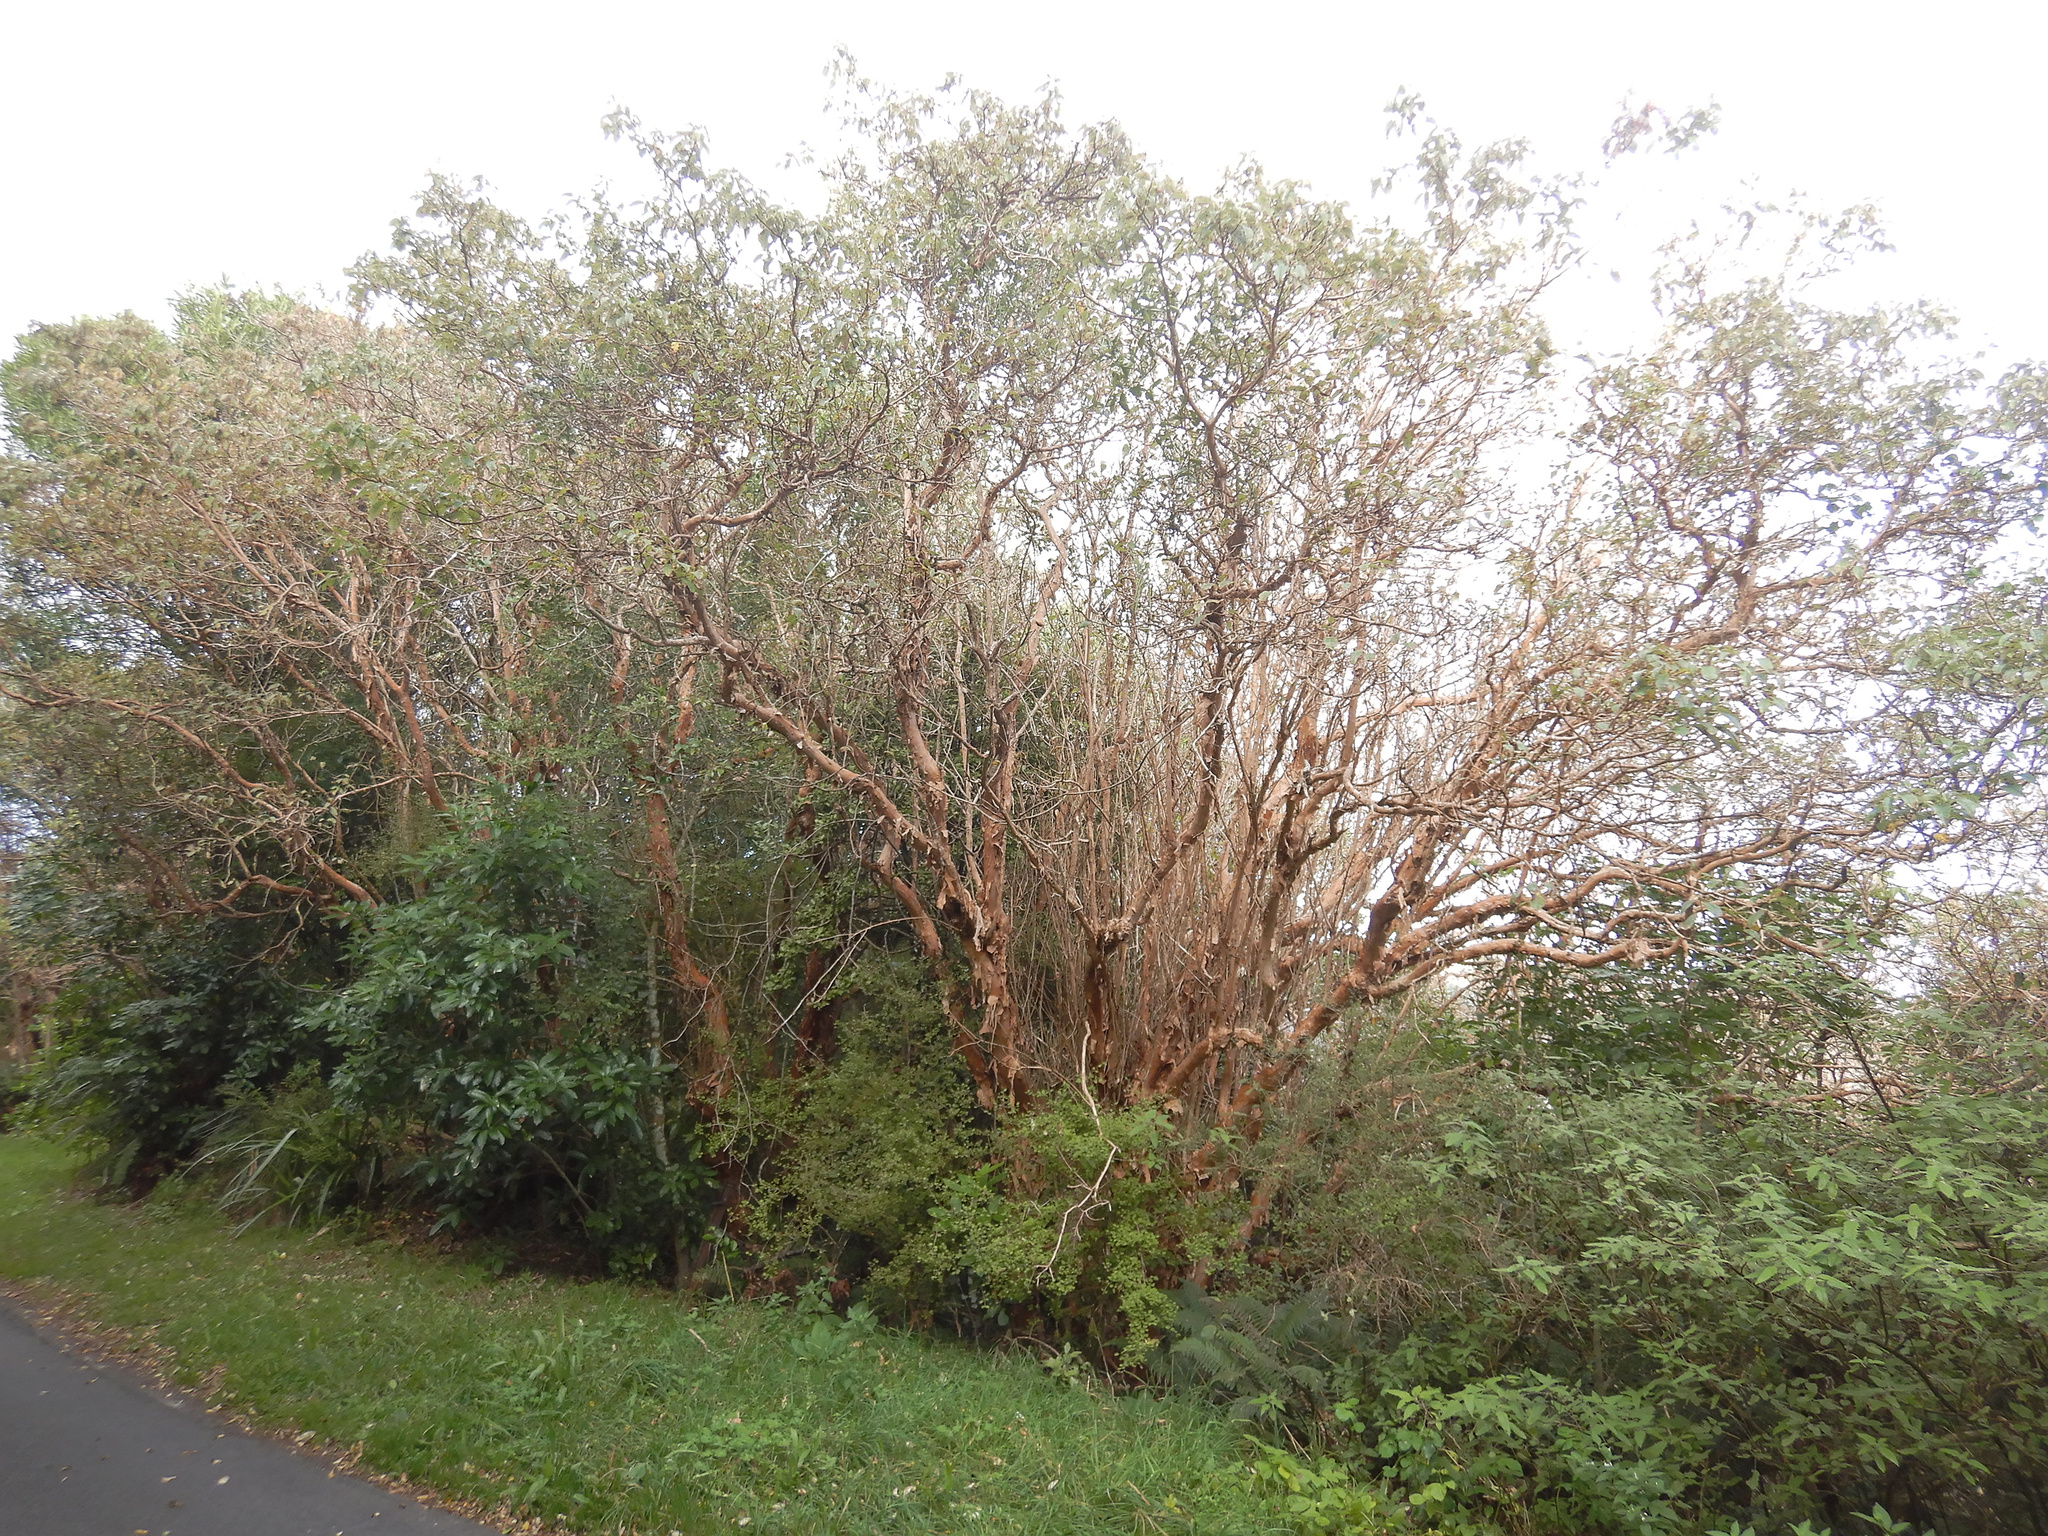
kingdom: Plantae
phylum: Tracheophyta
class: Magnoliopsida
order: Myrtales
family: Onagraceae
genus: Fuchsia
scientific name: Fuchsia excorticata
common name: Tree fuchsia
